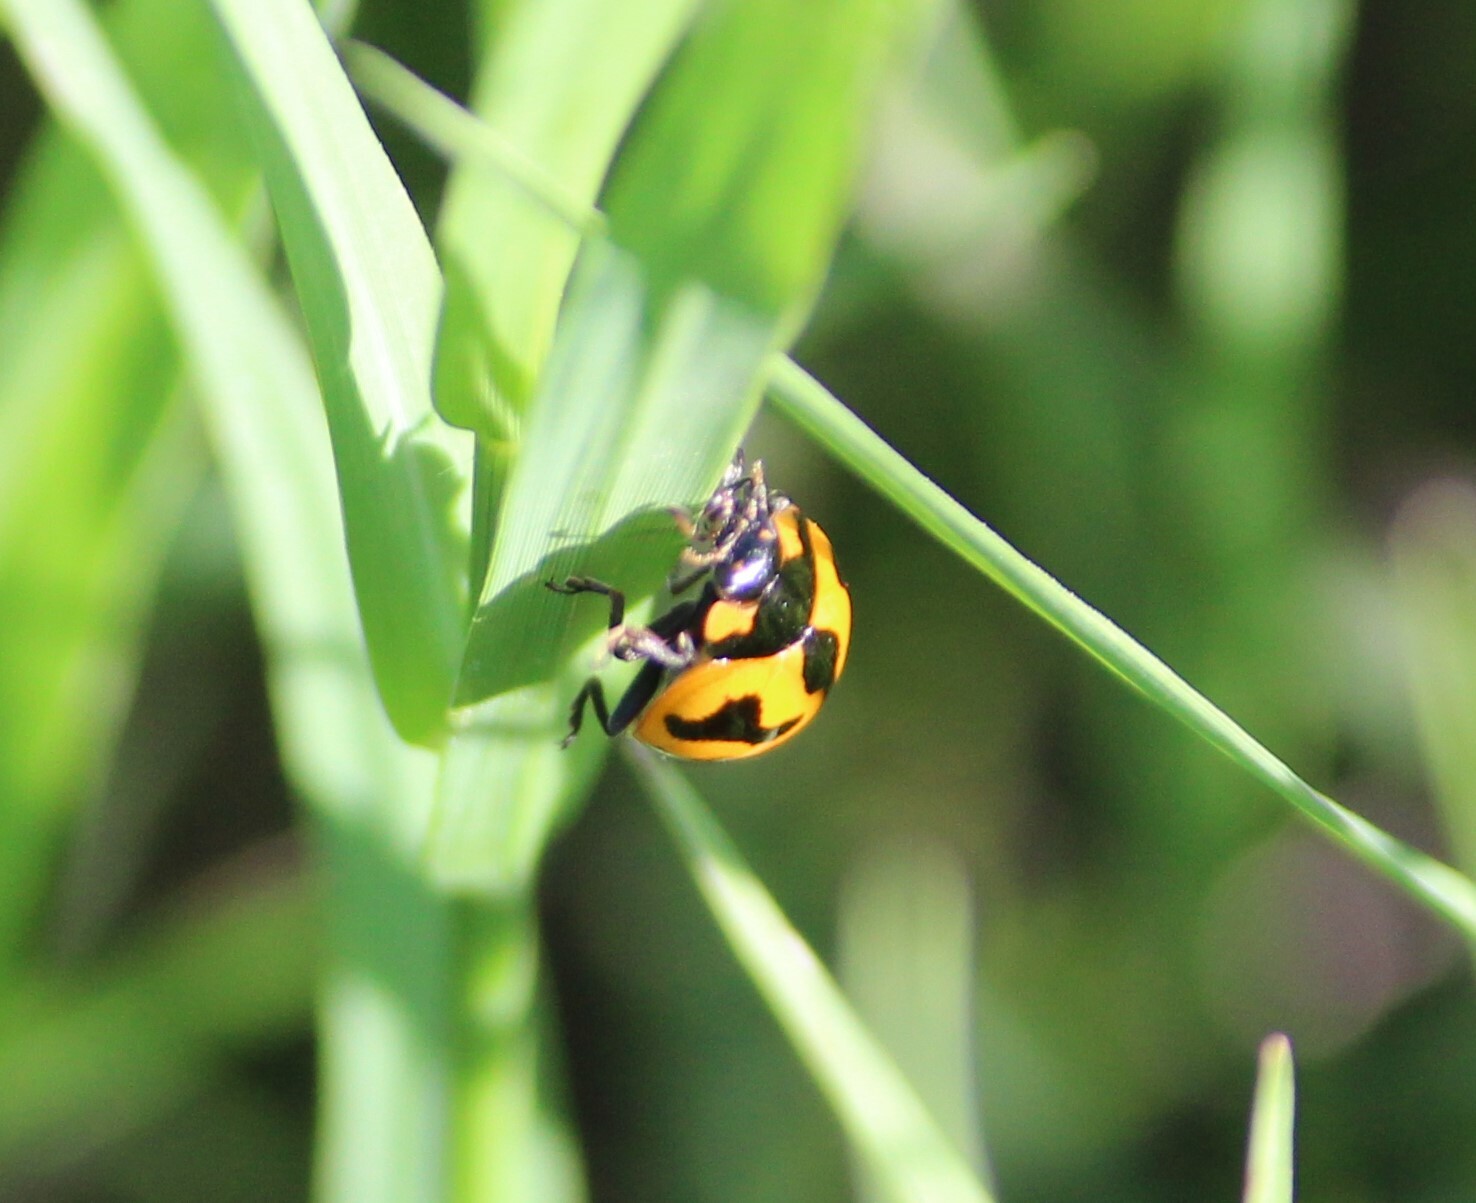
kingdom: Animalia
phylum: Arthropoda
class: Insecta
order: Coleoptera
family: Coccinellidae
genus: Coccinella
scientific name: Coccinella transversalis
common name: Transverse lady beetle
